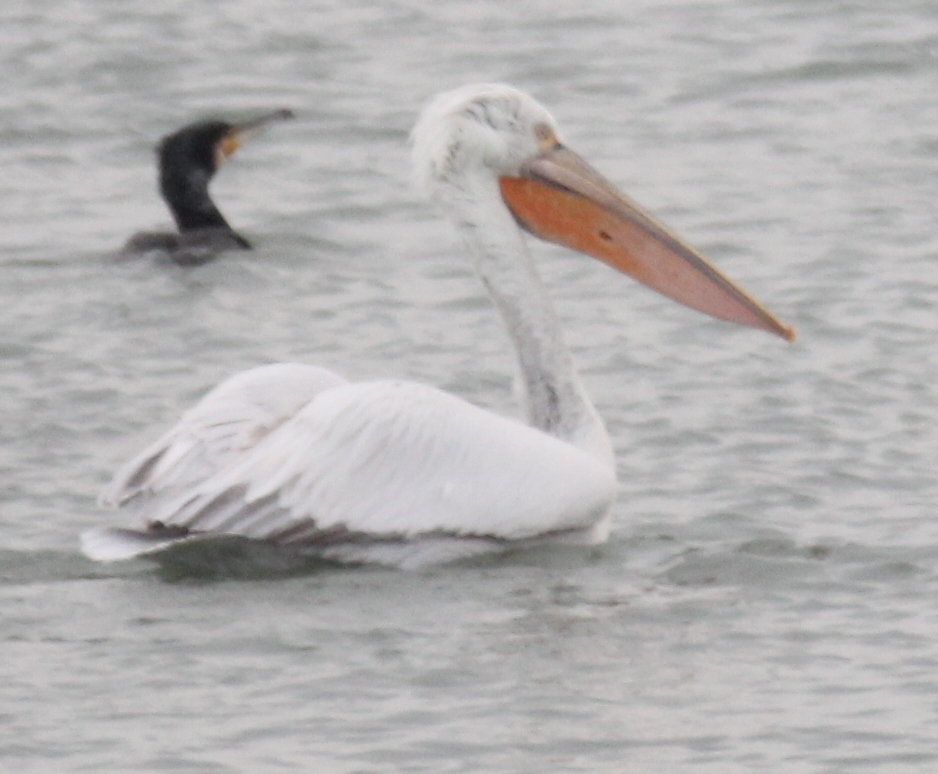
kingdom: Animalia
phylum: Chordata
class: Aves
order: Pelecaniformes
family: Pelecanidae
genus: Pelecanus
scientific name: Pelecanus crispus
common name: Dalmatian pelican
